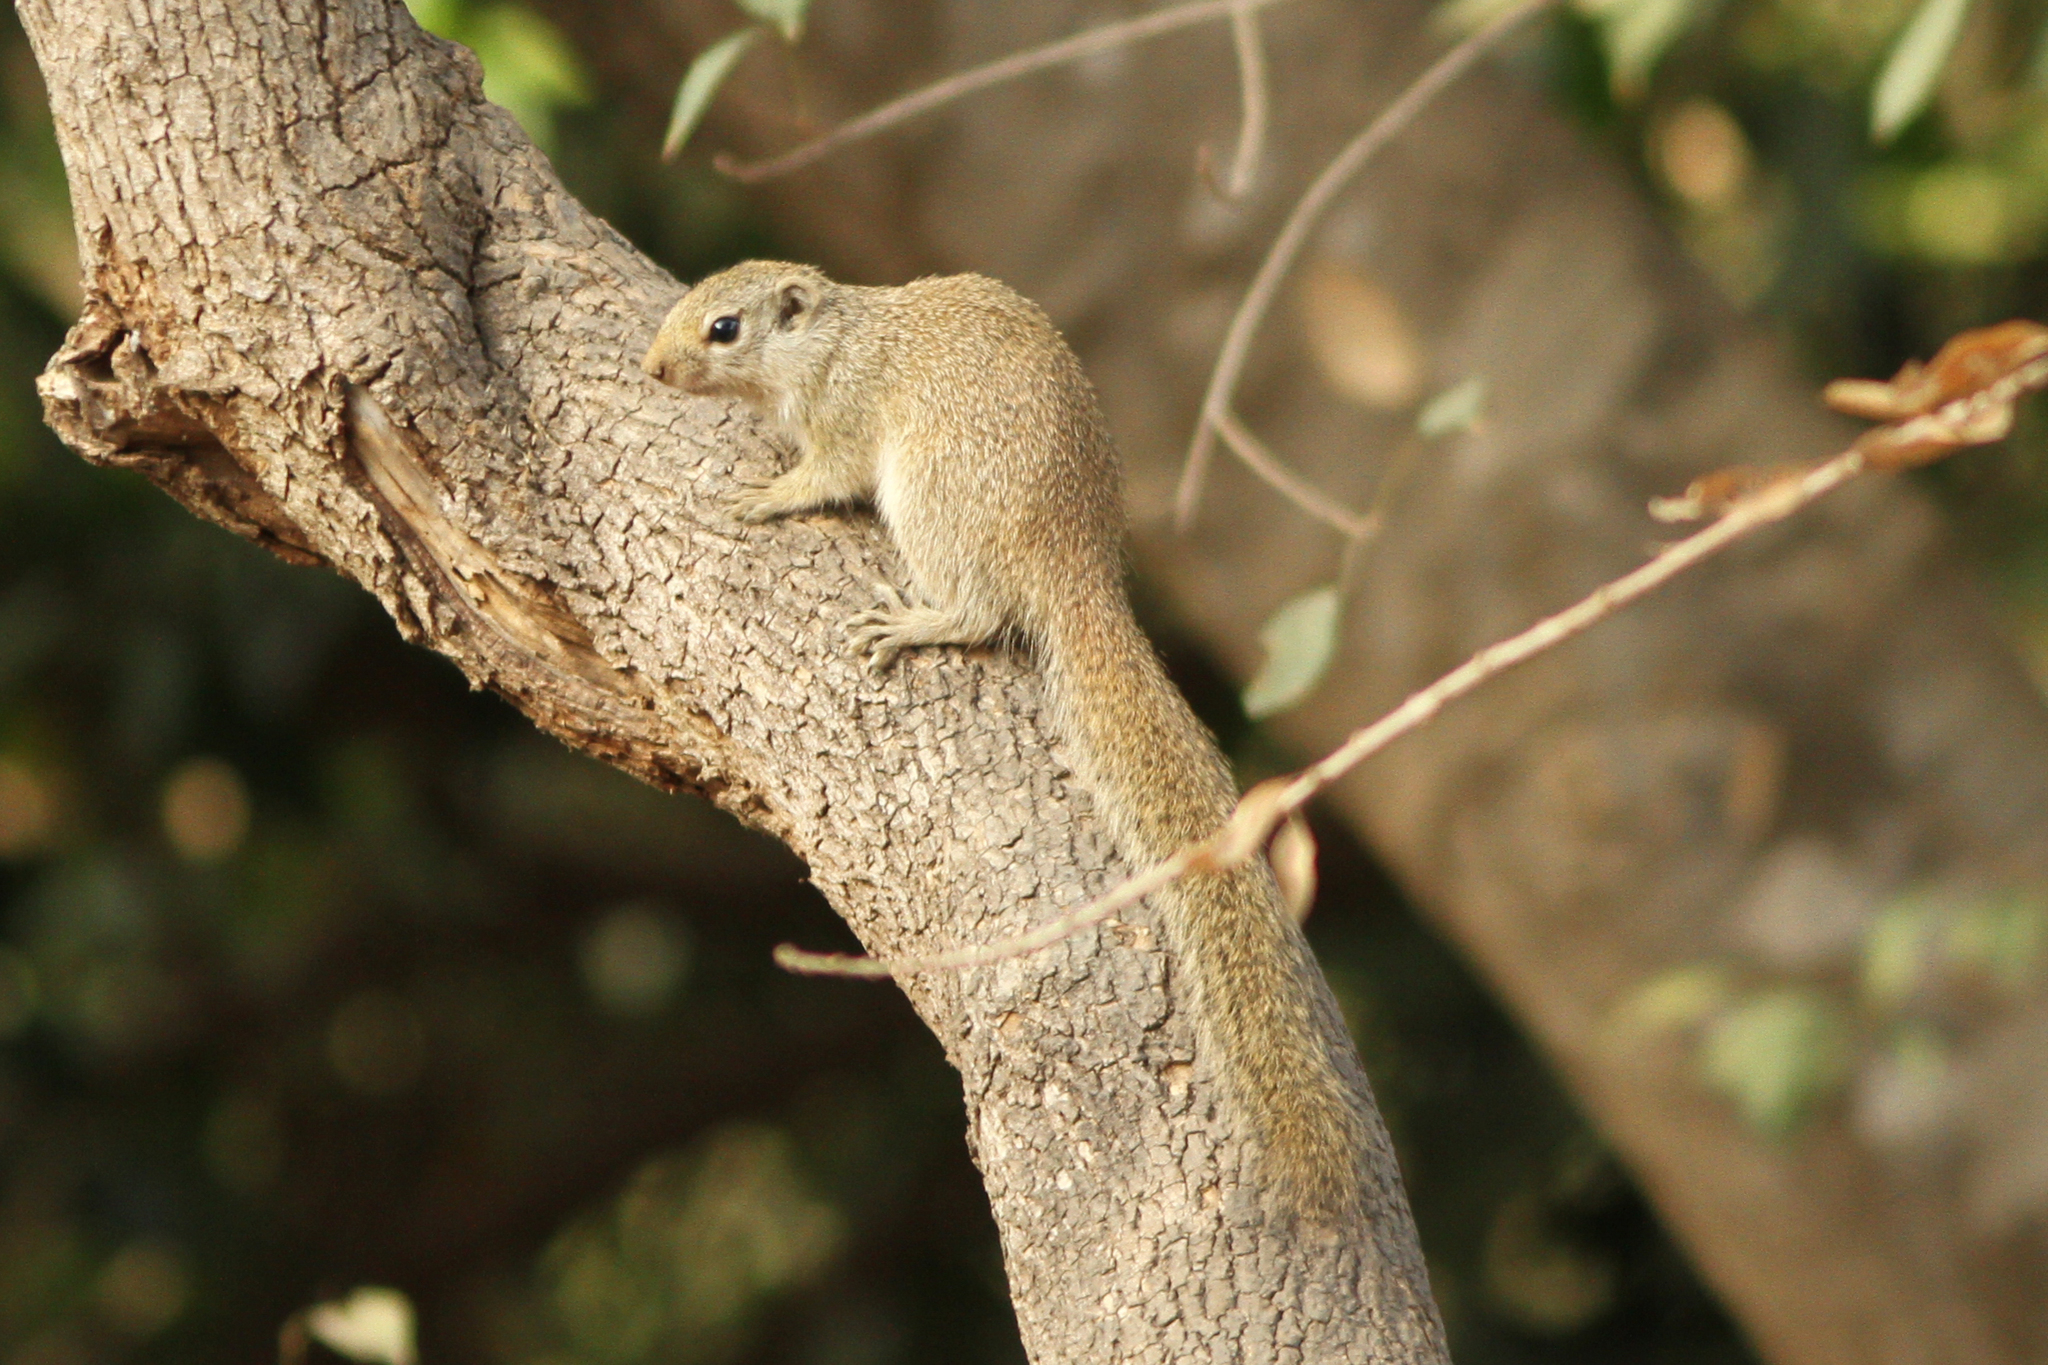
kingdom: Animalia
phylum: Chordata
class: Mammalia
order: Rodentia
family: Sciuridae
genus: Heliosciurus
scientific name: Heliosciurus gambianus
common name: Gambian sun squirrel
